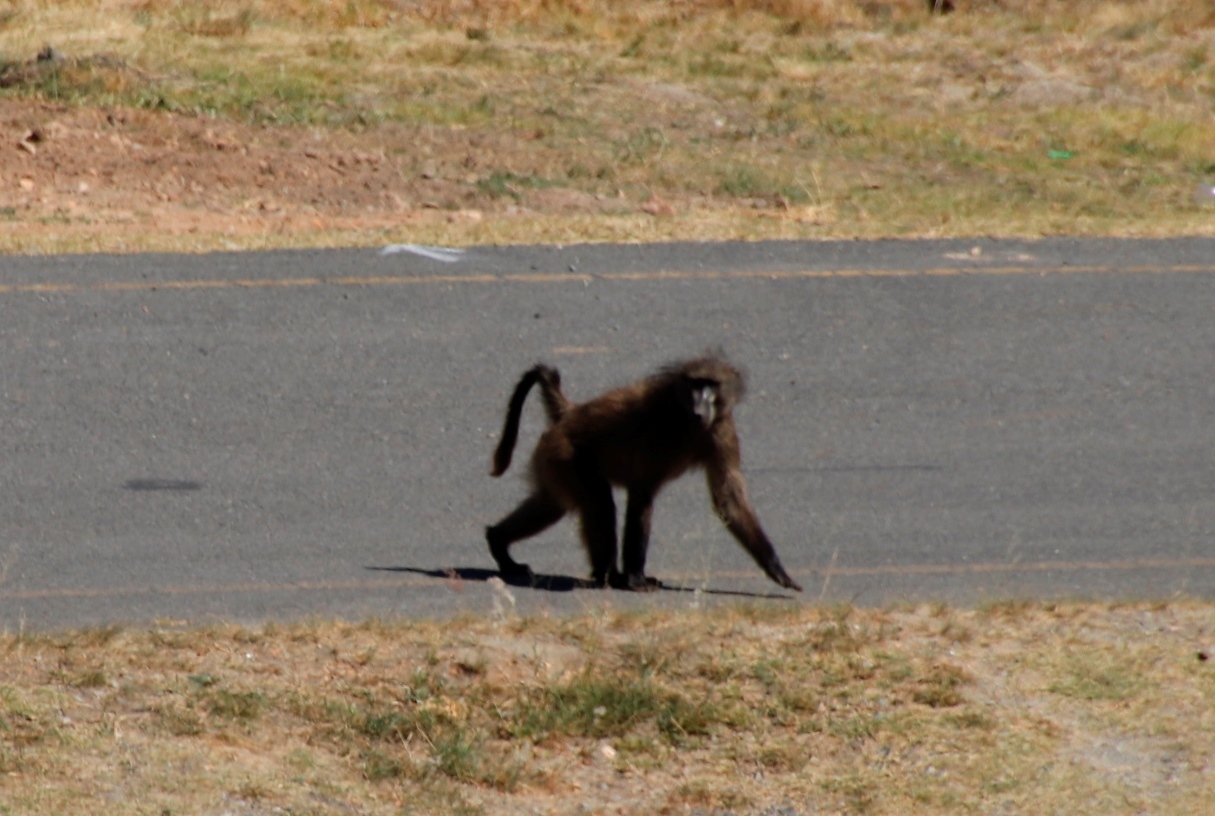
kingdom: Animalia
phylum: Chordata
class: Mammalia
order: Primates
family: Cercopithecidae
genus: Papio
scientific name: Papio ursinus
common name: Chacma baboon
